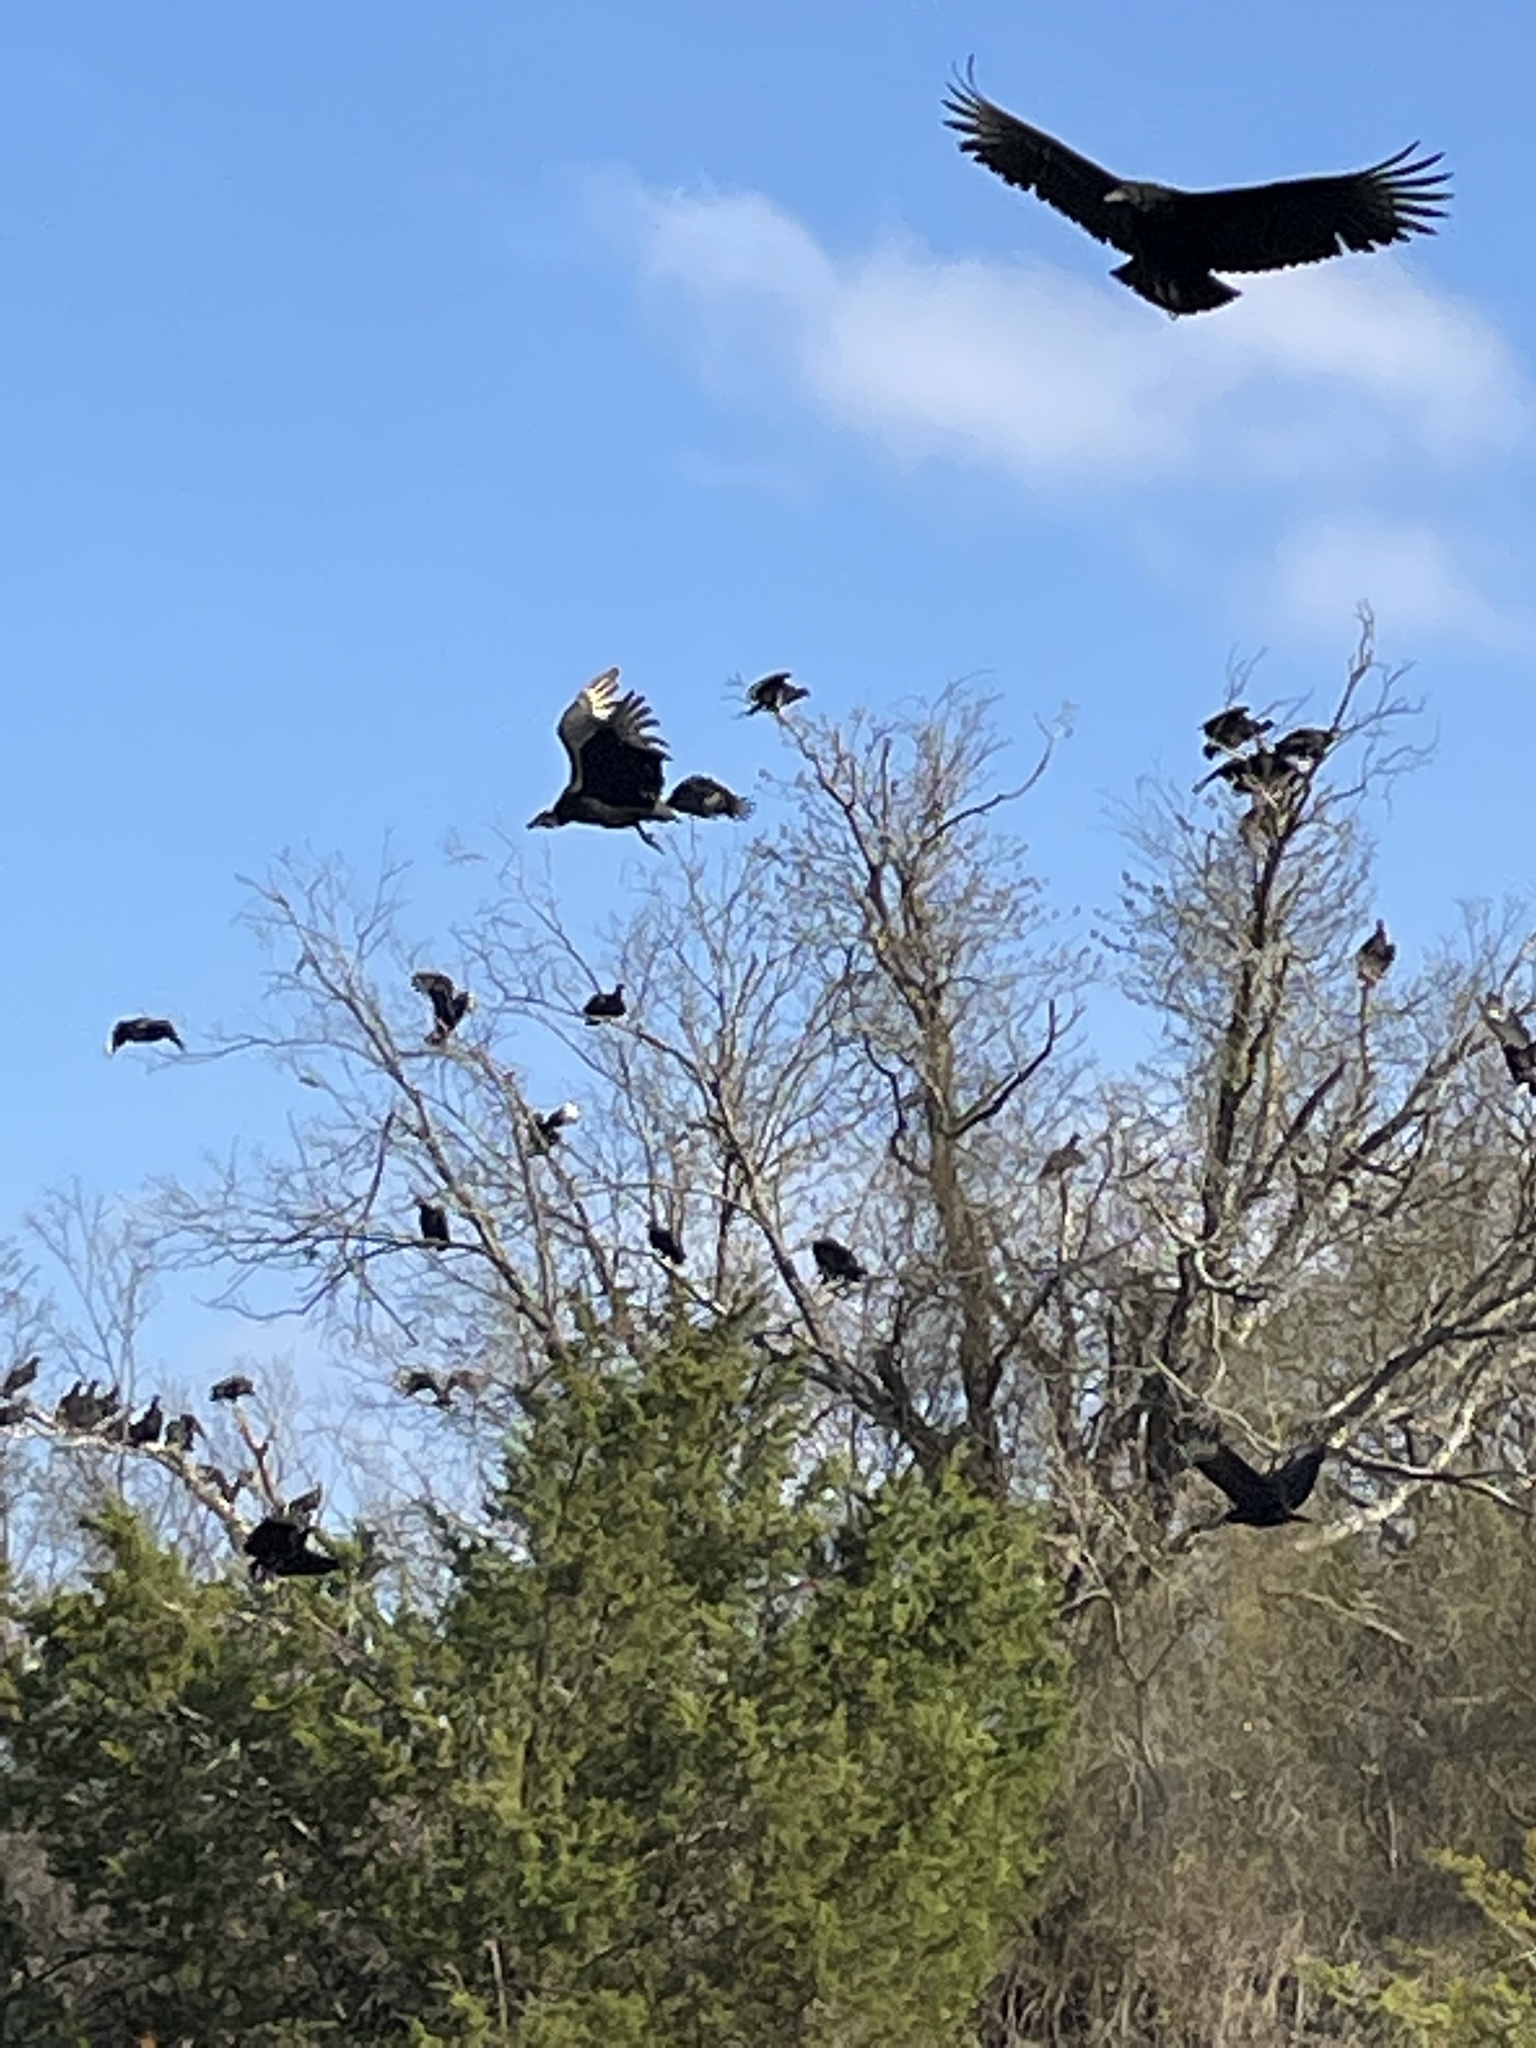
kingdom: Animalia
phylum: Chordata
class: Aves
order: Accipitriformes
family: Cathartidae
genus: Coragyps
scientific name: Coragyps atratus
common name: Black vulture
